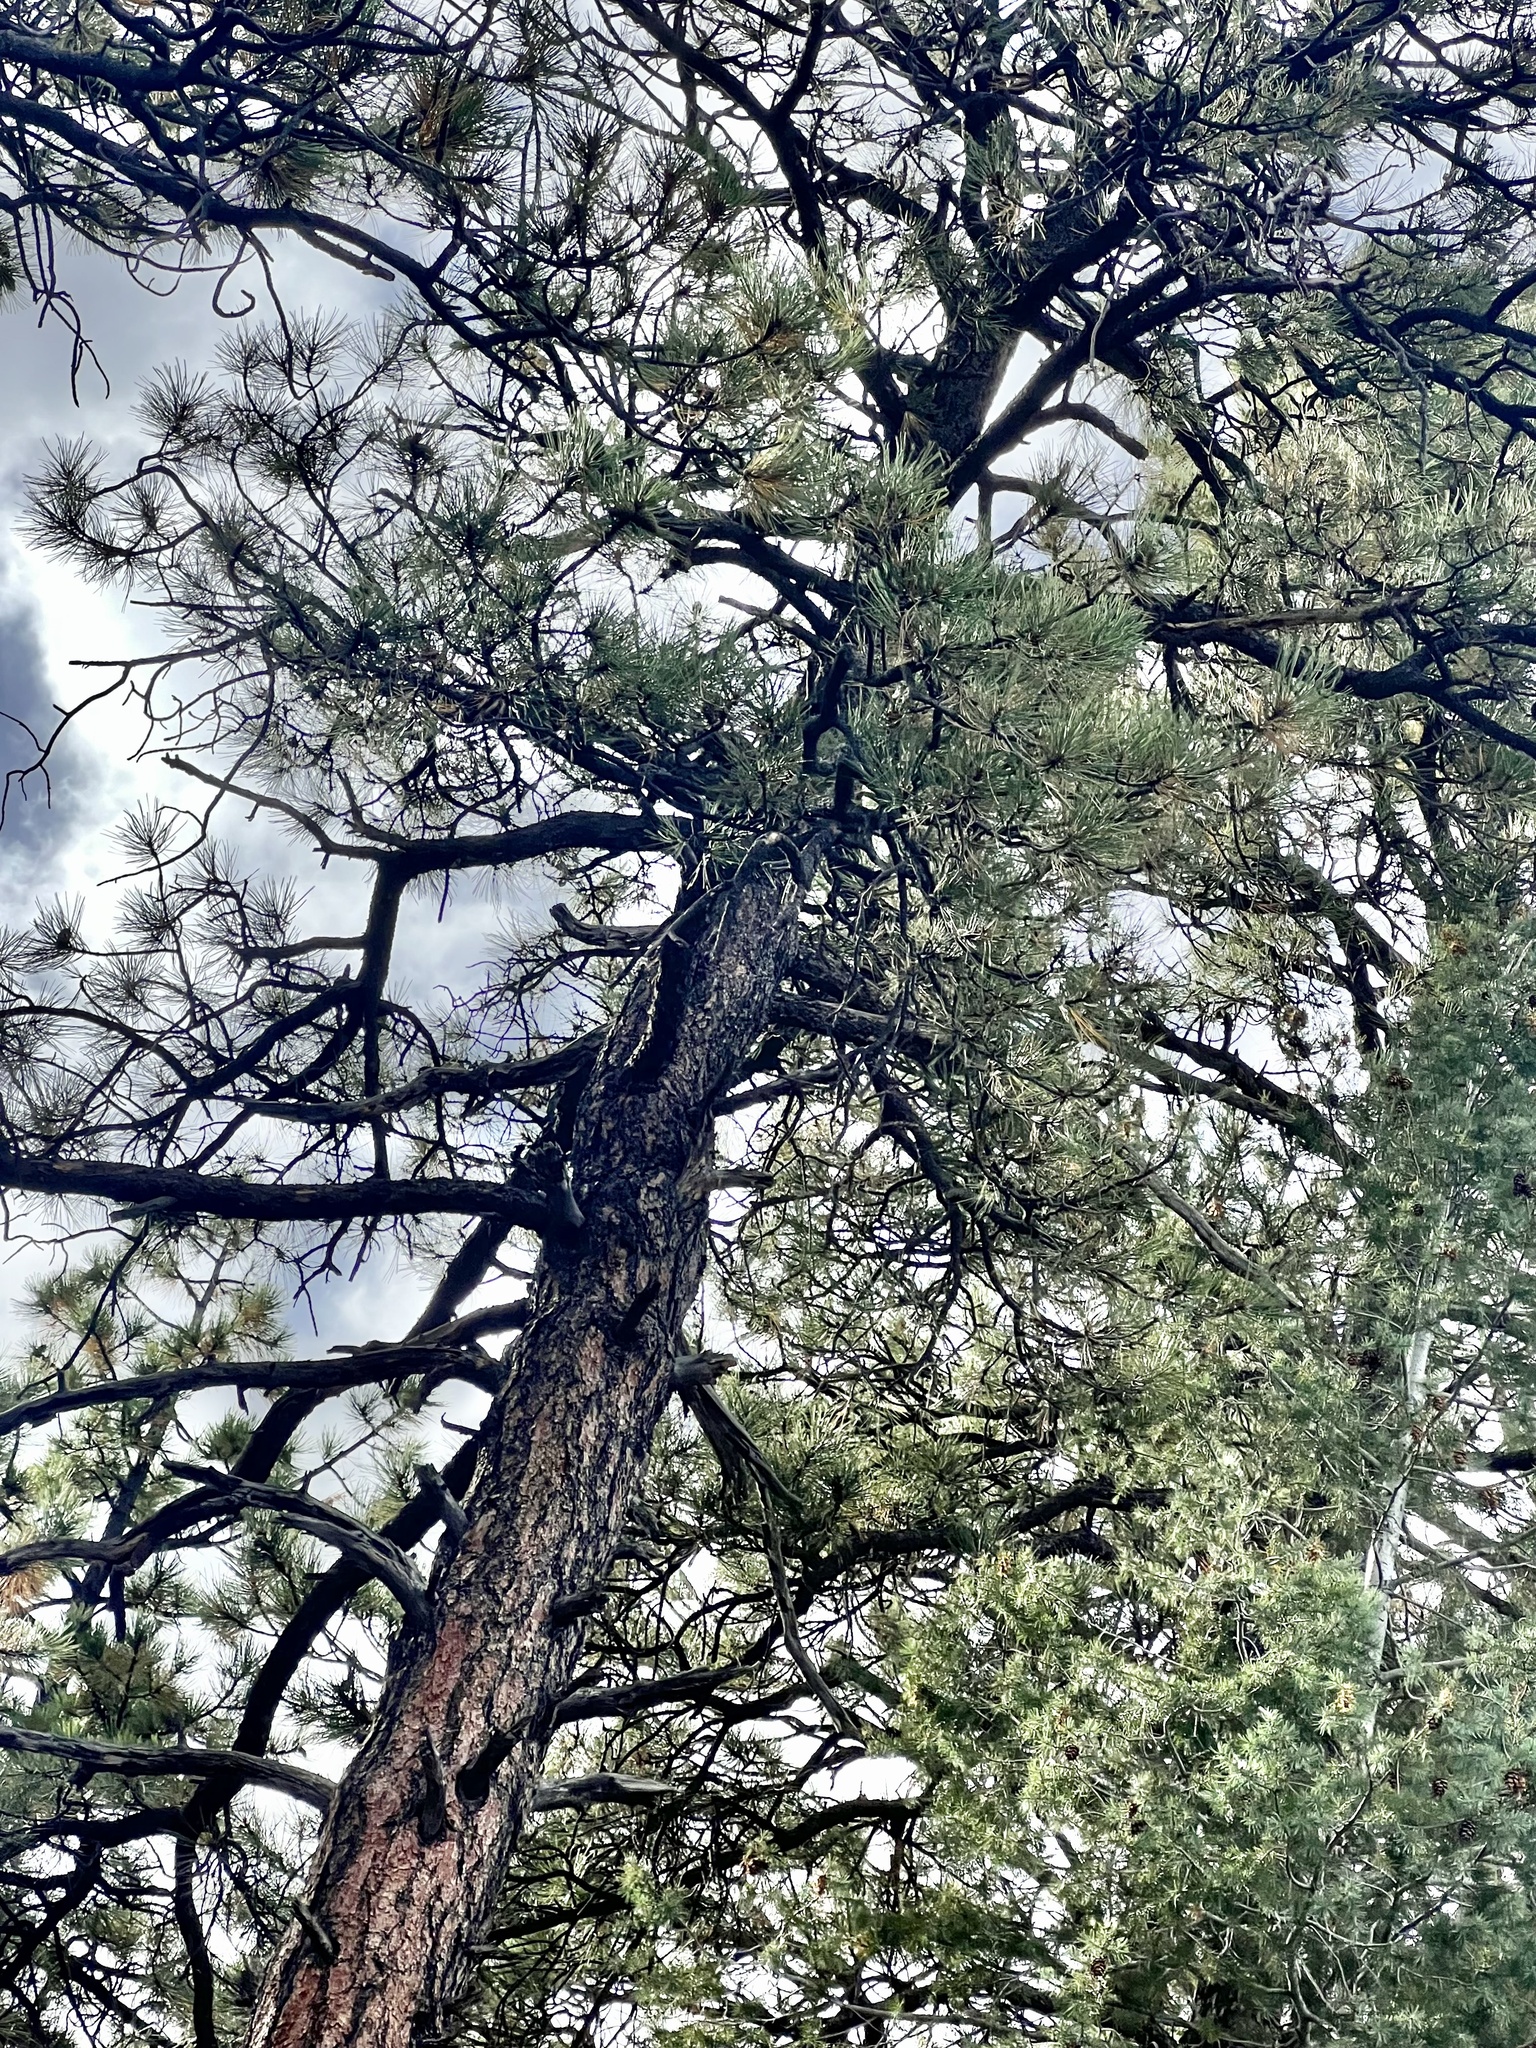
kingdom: Plantae
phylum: Tracheophyta
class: Pinopsida
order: Pinales
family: Pinaceae
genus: Pinus
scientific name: Pinus ponderosa
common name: Western yellow-pine
